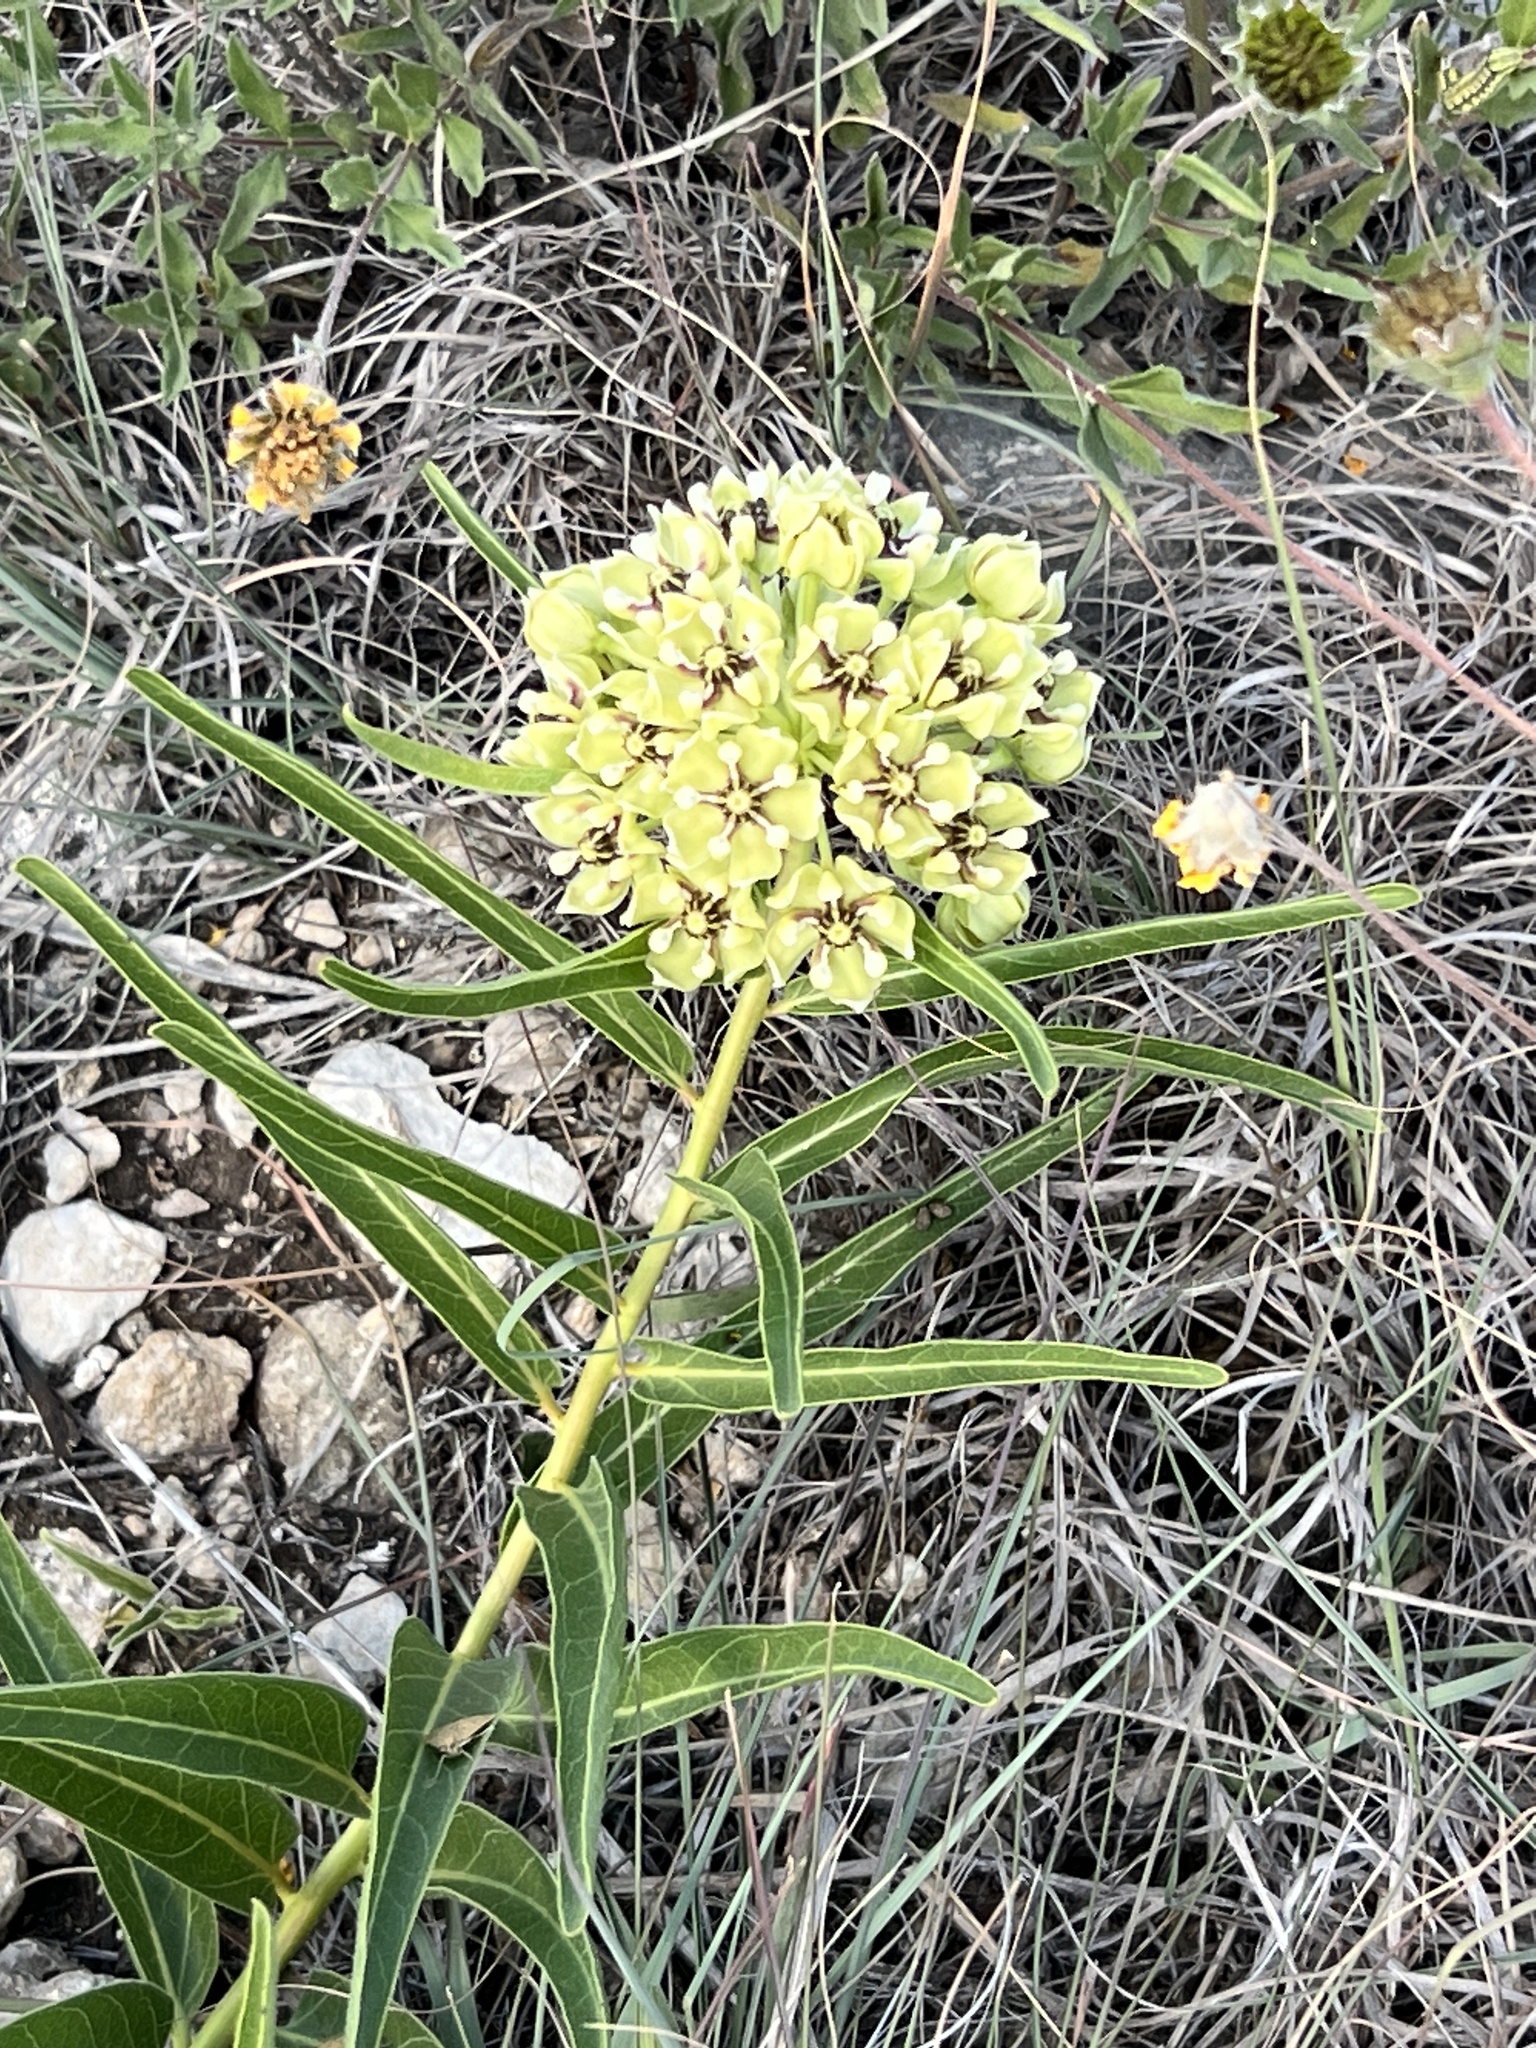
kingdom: Plantae
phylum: Tracheophyta
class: Magnoliopsida
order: Gentianales
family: Apocynaceae
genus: Asclepias
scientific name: Asclepias asperula
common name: Antelope horns
